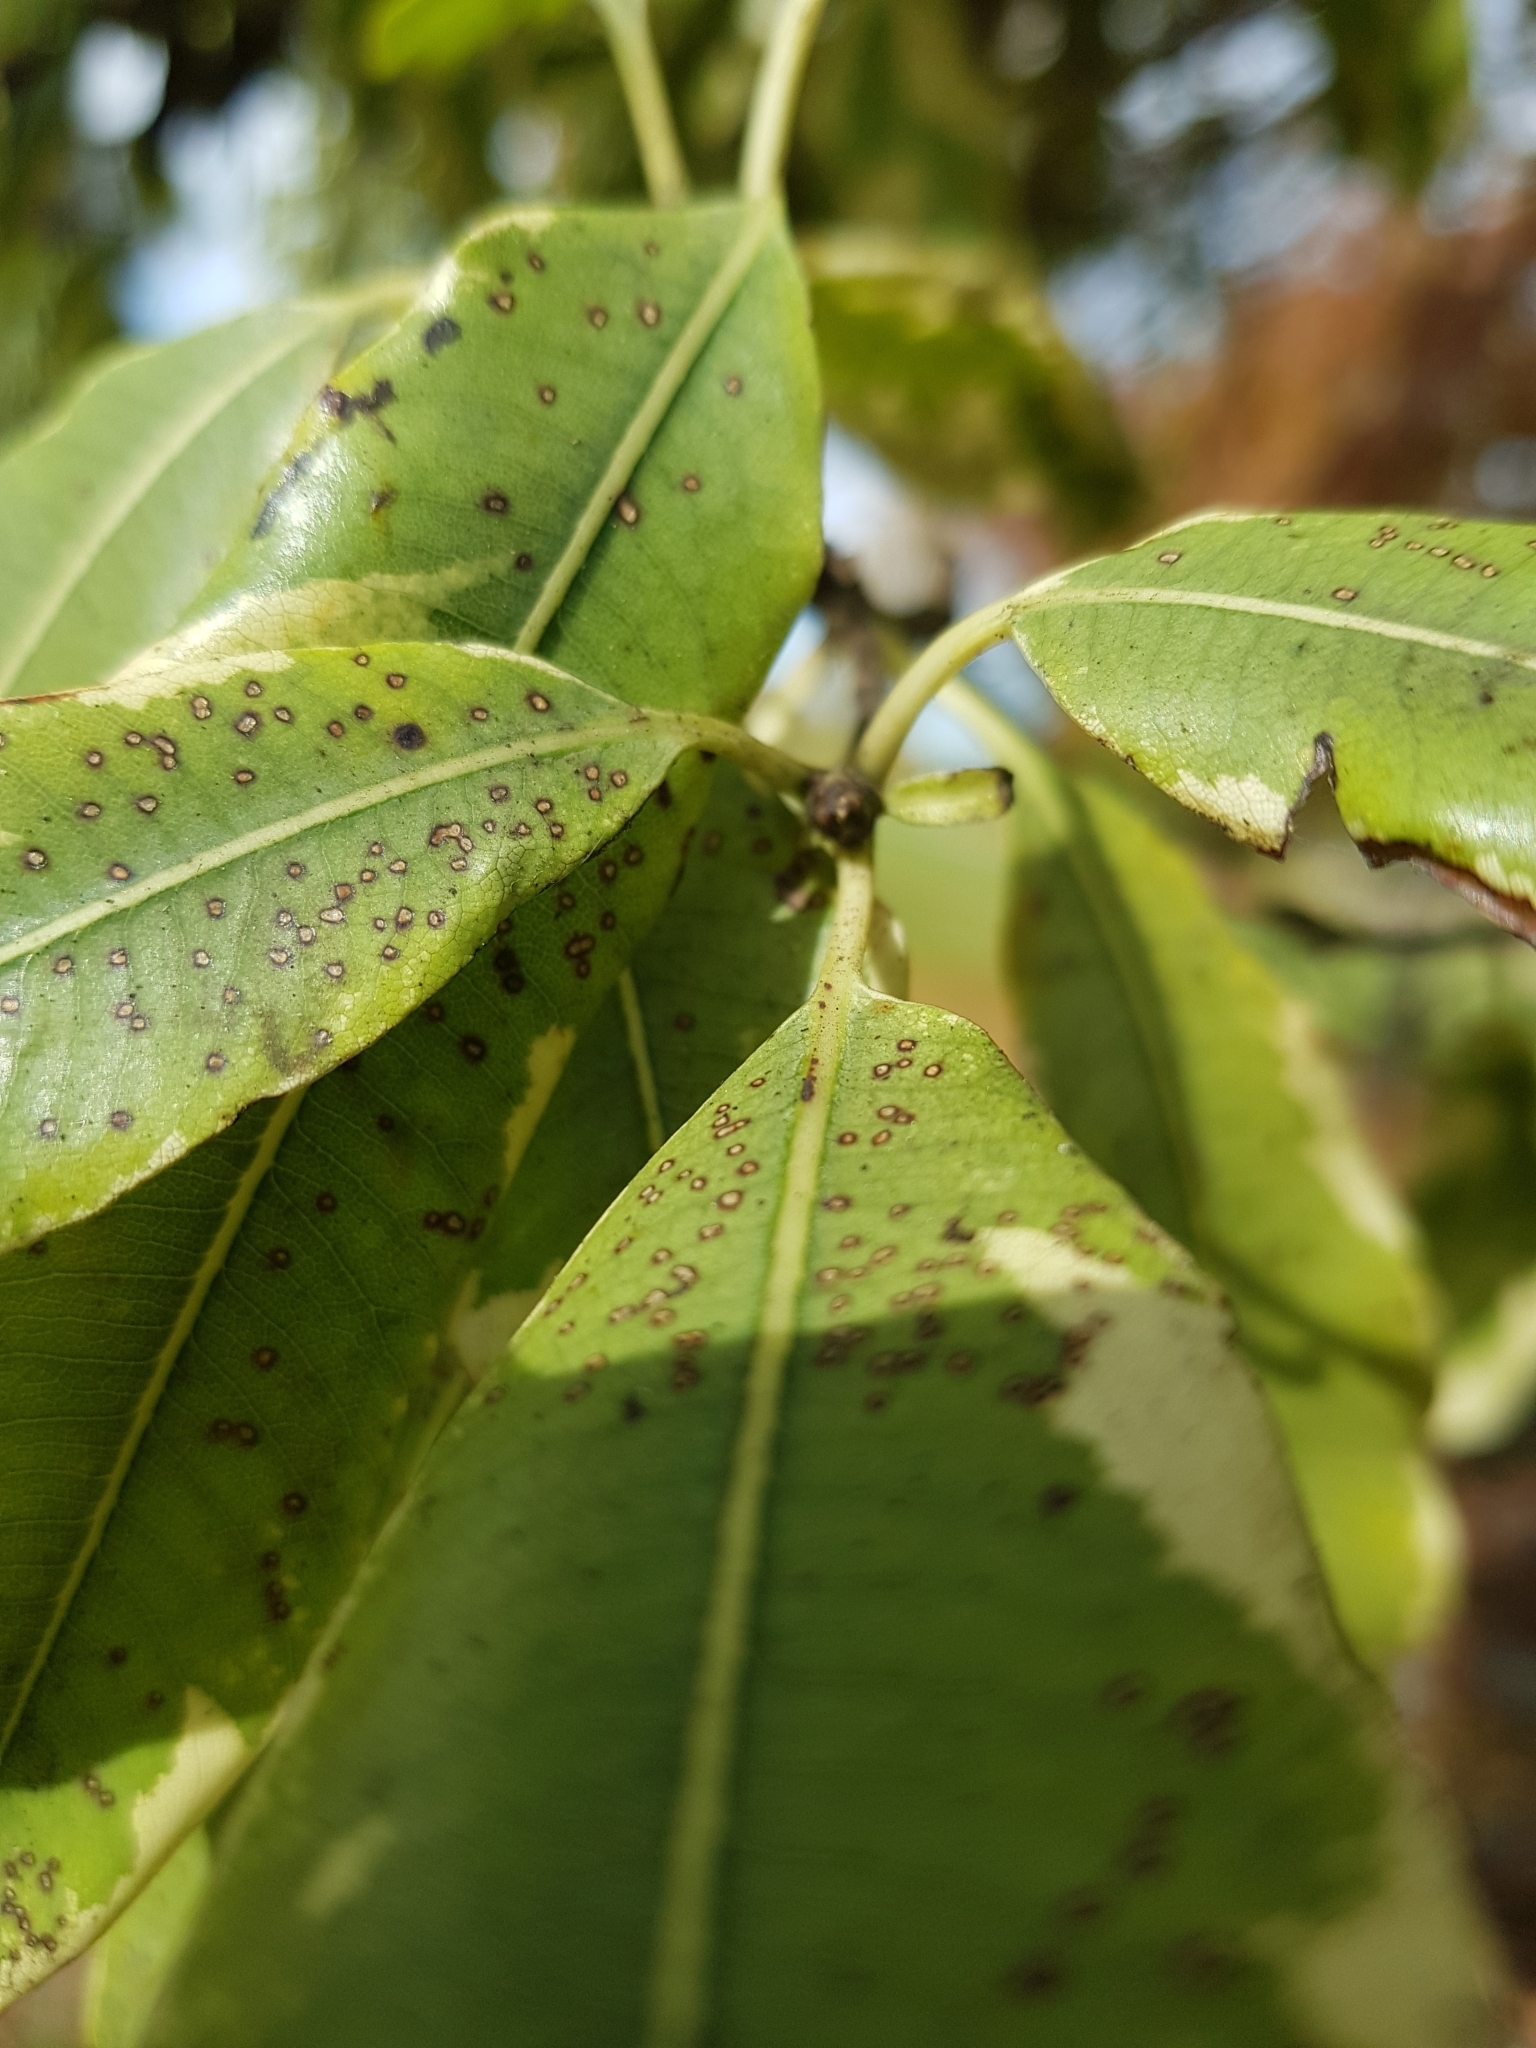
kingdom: Plantae
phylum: Tracheophyta
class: Magnoliopsida
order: Apiales
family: Pittosporaceae
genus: Pittosporum
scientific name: Pittosporum eugenioides
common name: Lemonwood
